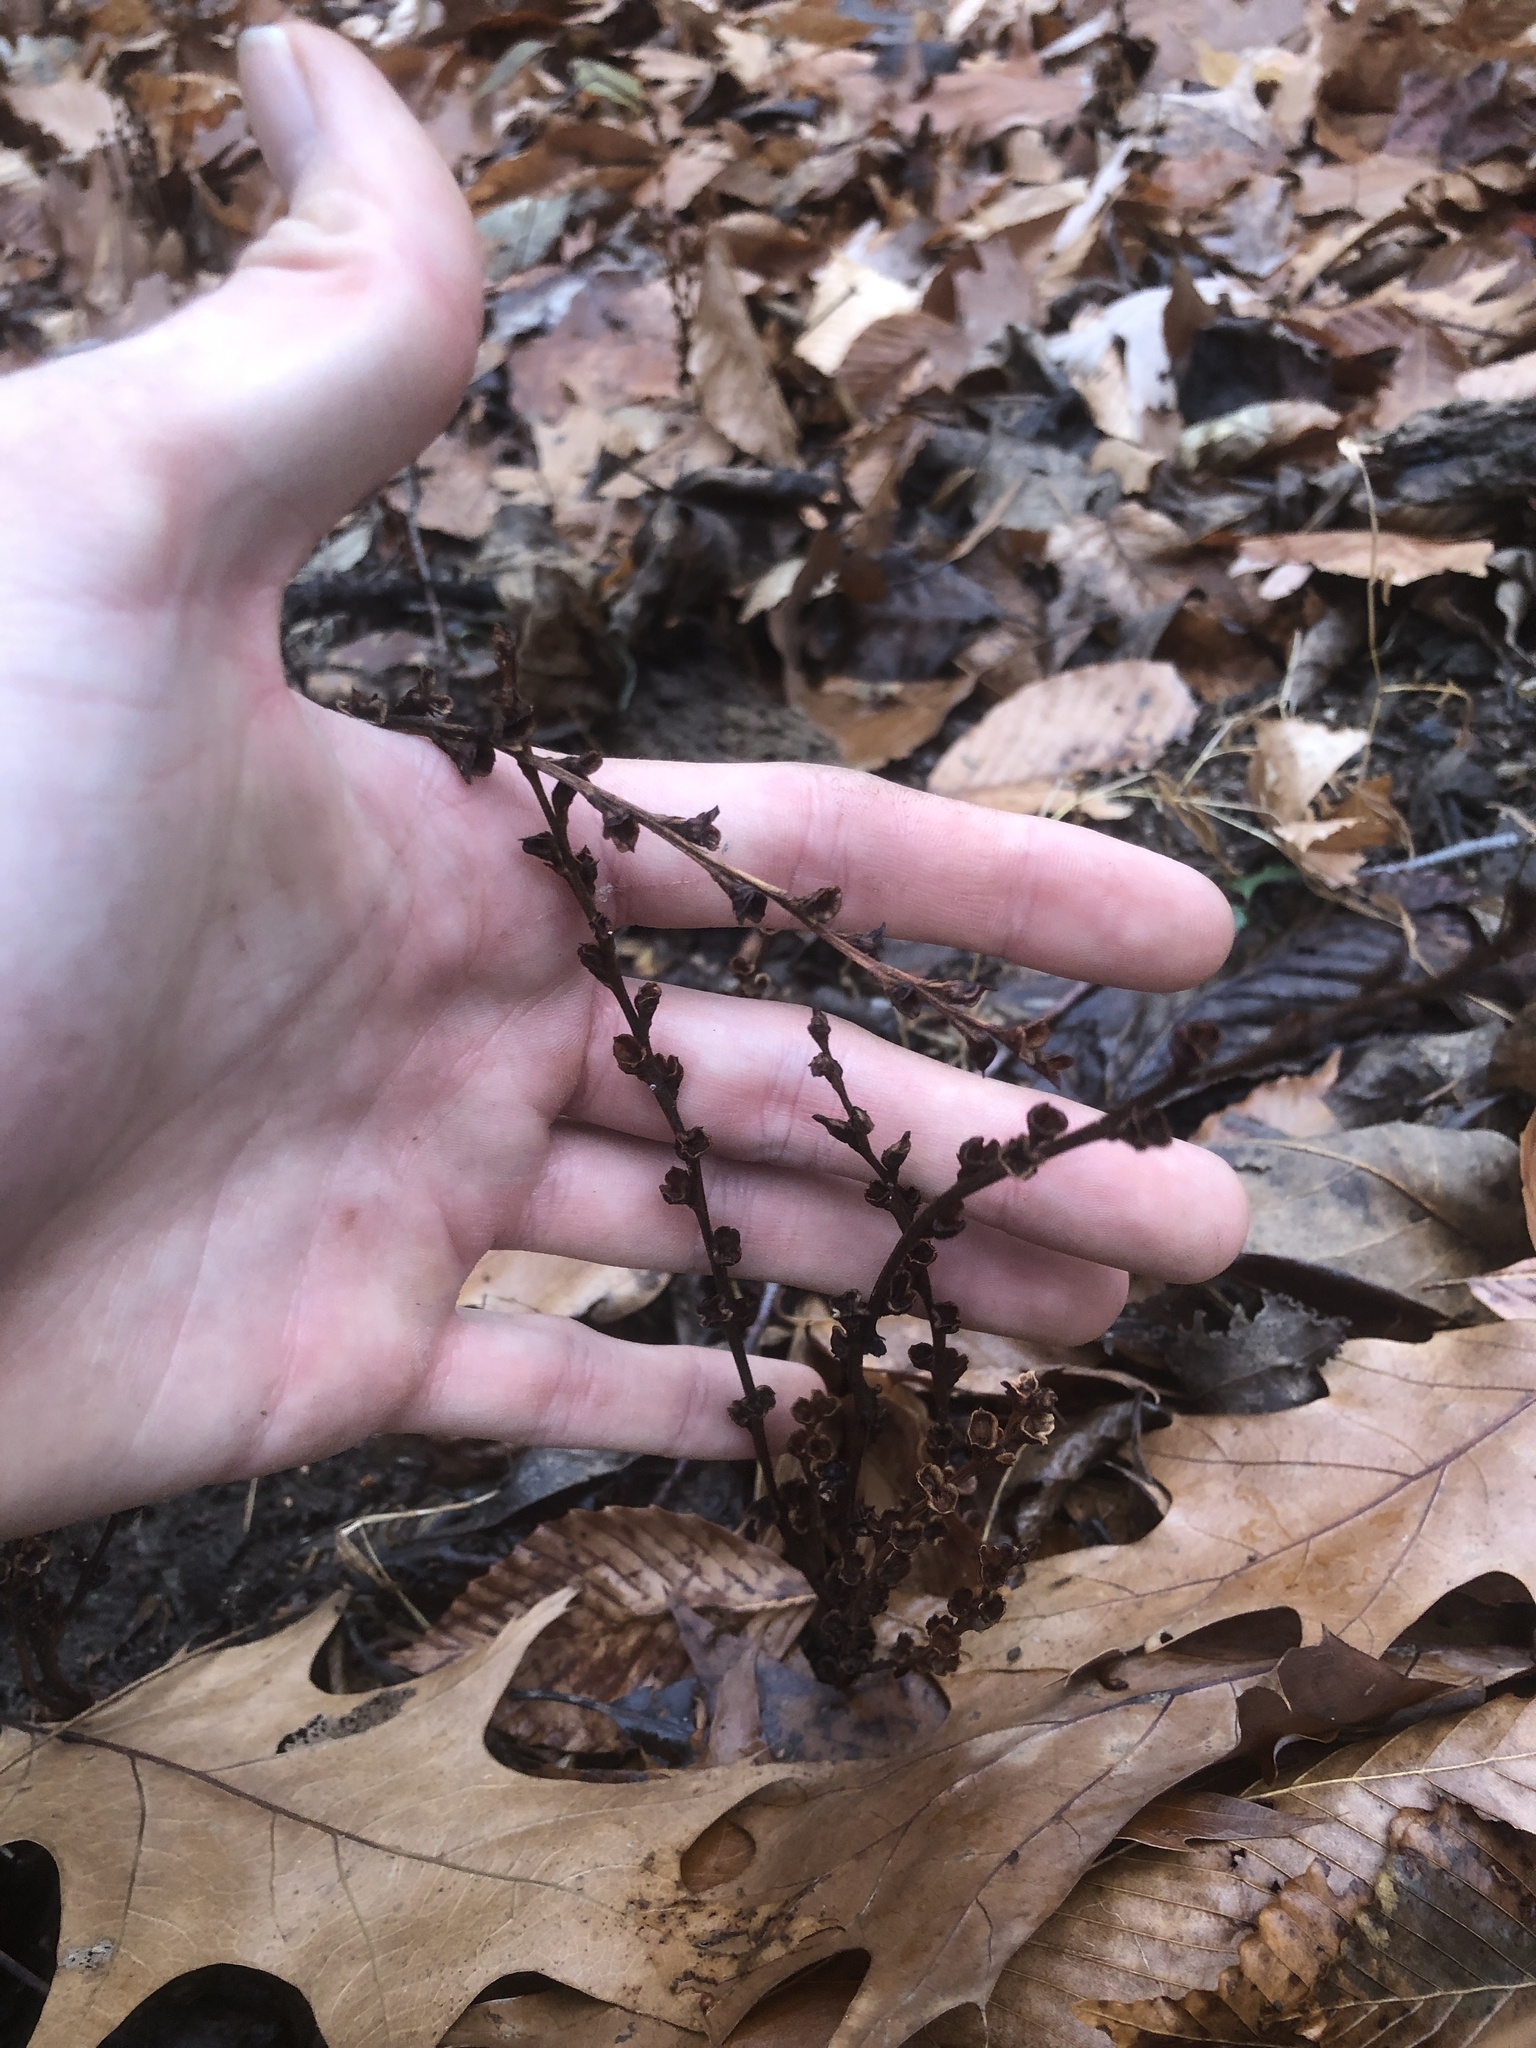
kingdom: Plantae
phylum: Tracheophyta
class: Magnoliopsida
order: Lamiales
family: Orobanchaceae
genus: Epifagus
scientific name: Epifagus virginiana
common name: Beechdrops
